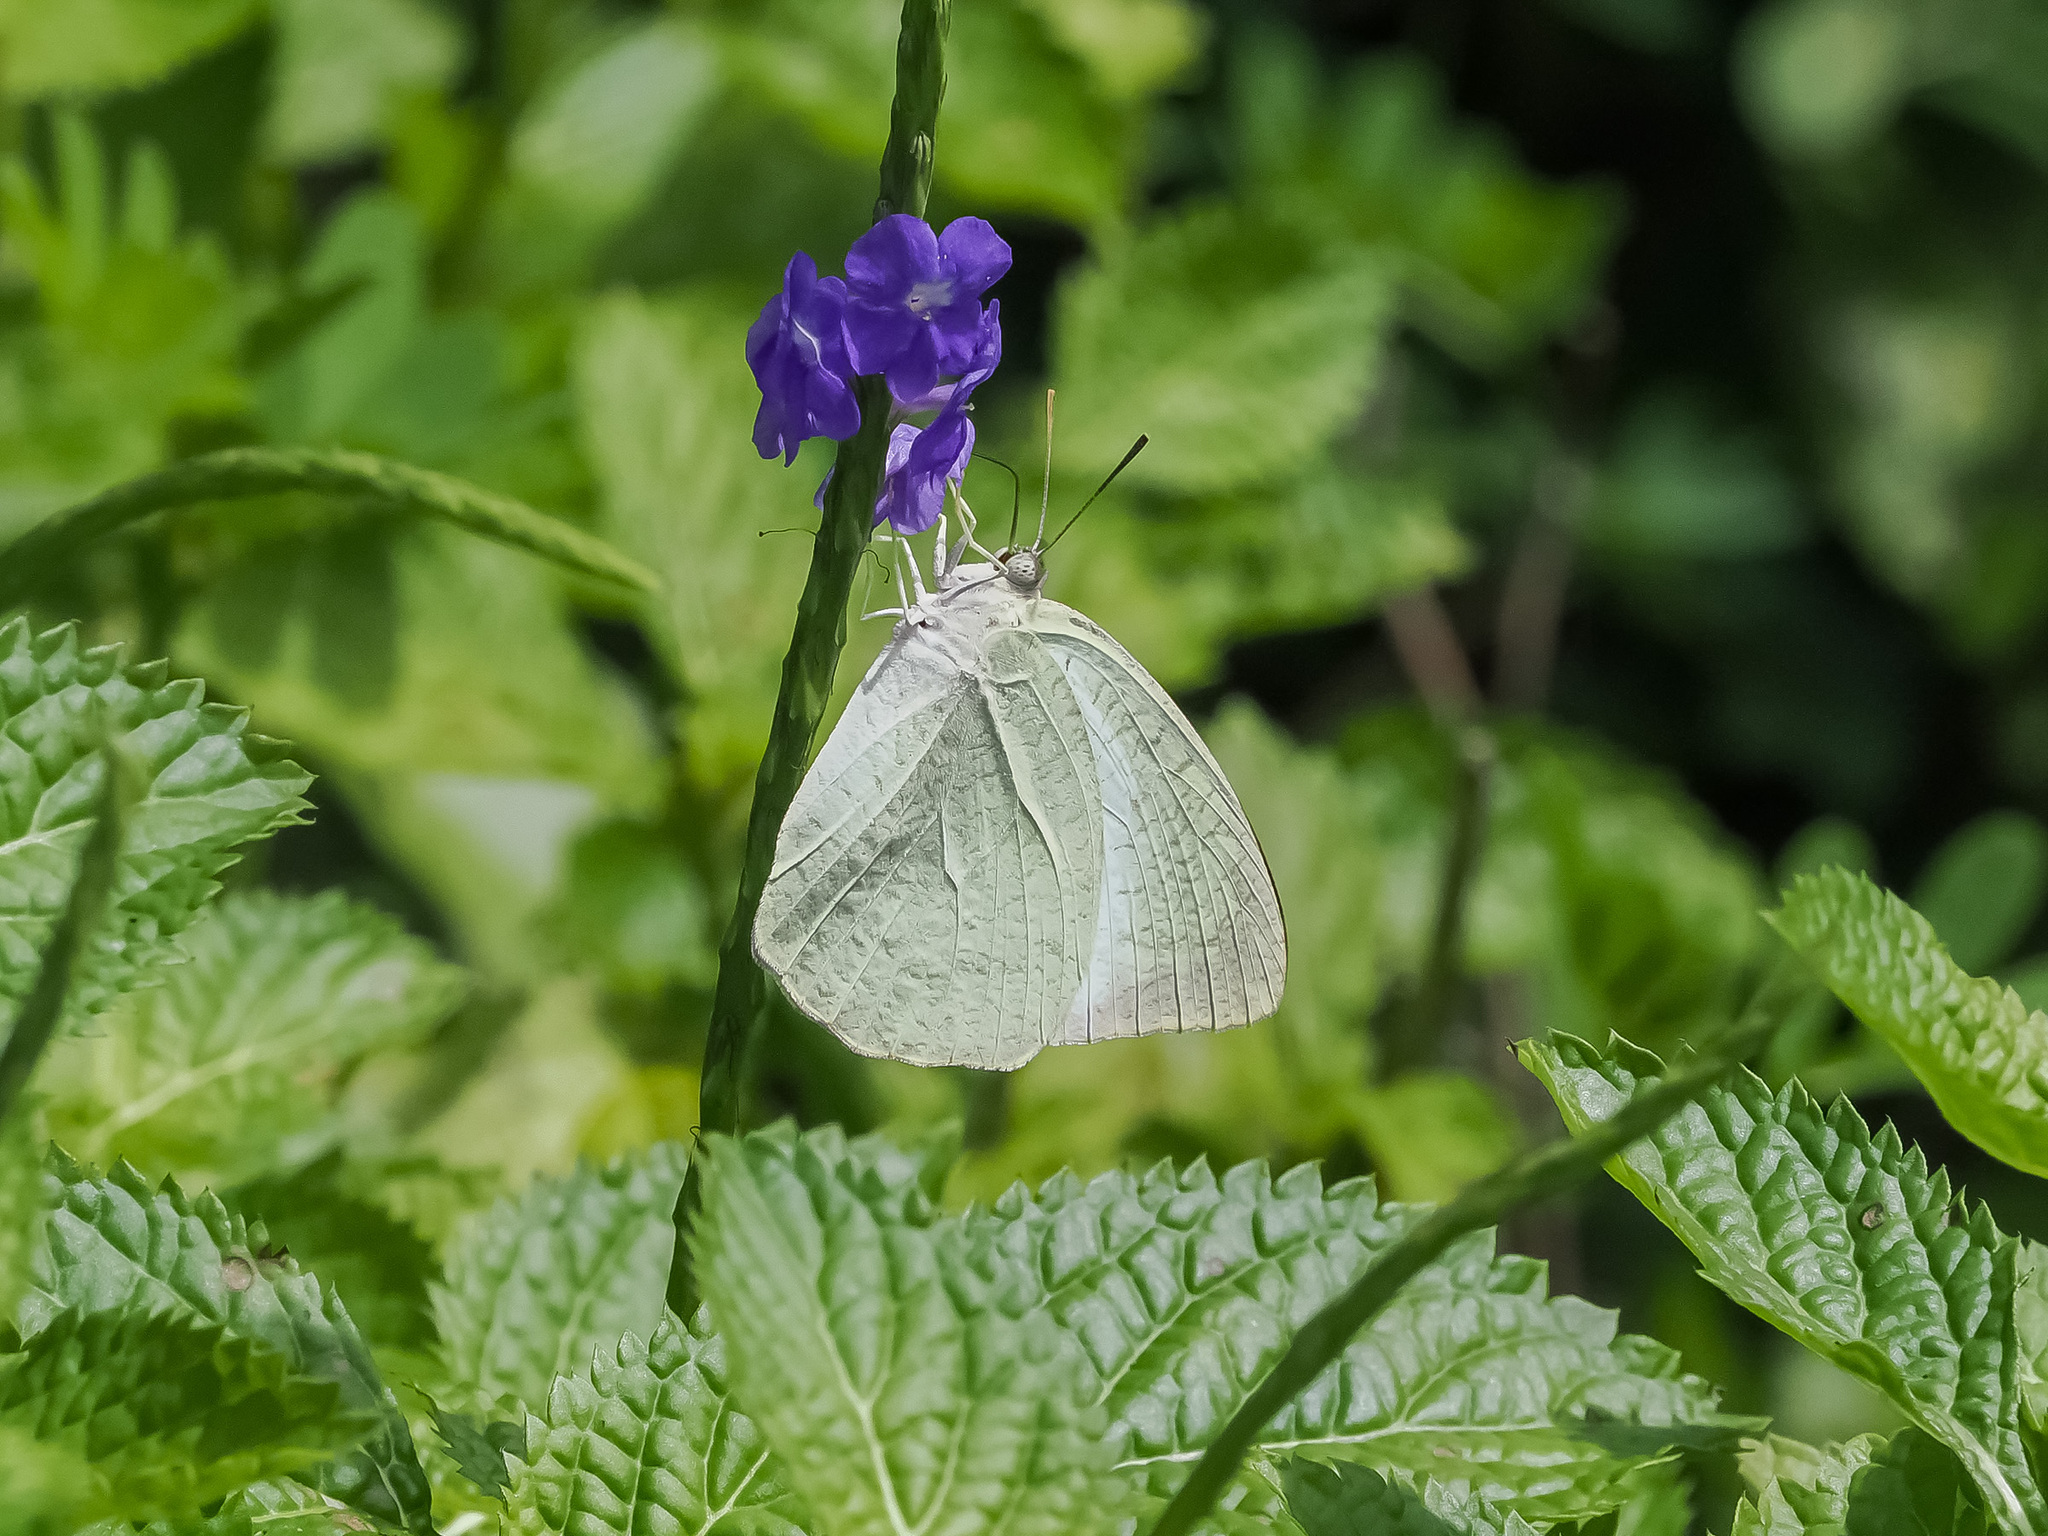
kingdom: Animalia
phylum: Arthropoda
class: Insecta
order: Lepidoptera
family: Pieridae
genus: Catopsilia
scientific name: Catopsilia pyranthe
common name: Mottled emigrant
